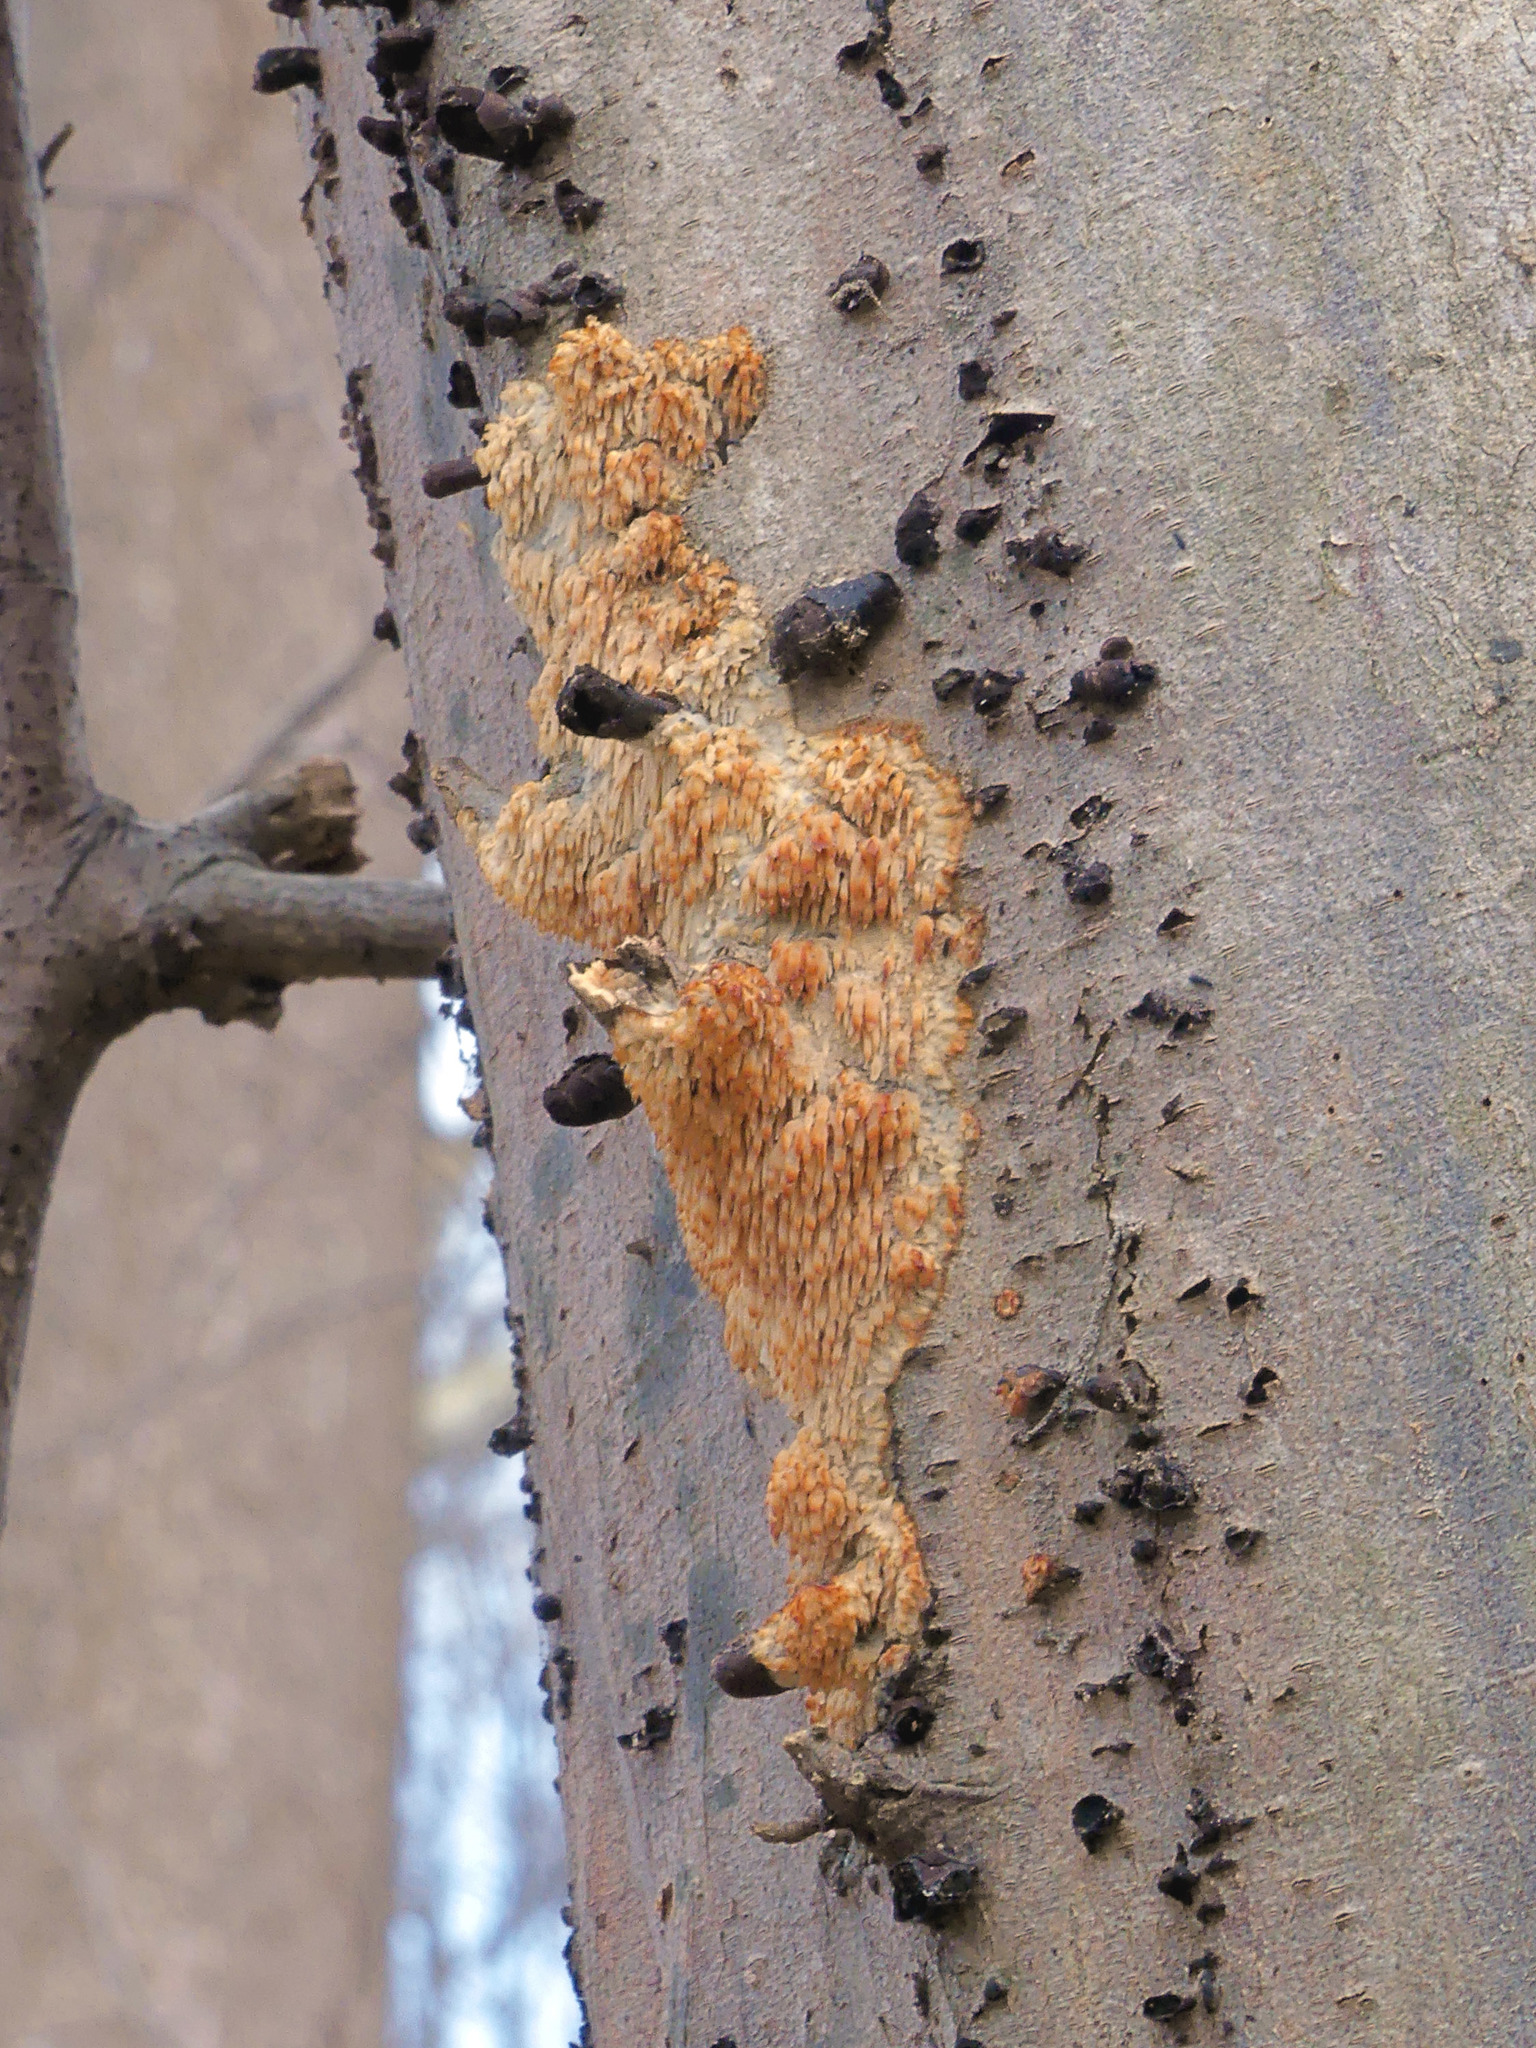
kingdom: Fungi
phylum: Basidiomycota
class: Agaricomycetes
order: Agaricales
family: Radulomycetaceae
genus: Radulomyces
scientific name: Radulomyces copelandii
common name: Asian beauty
